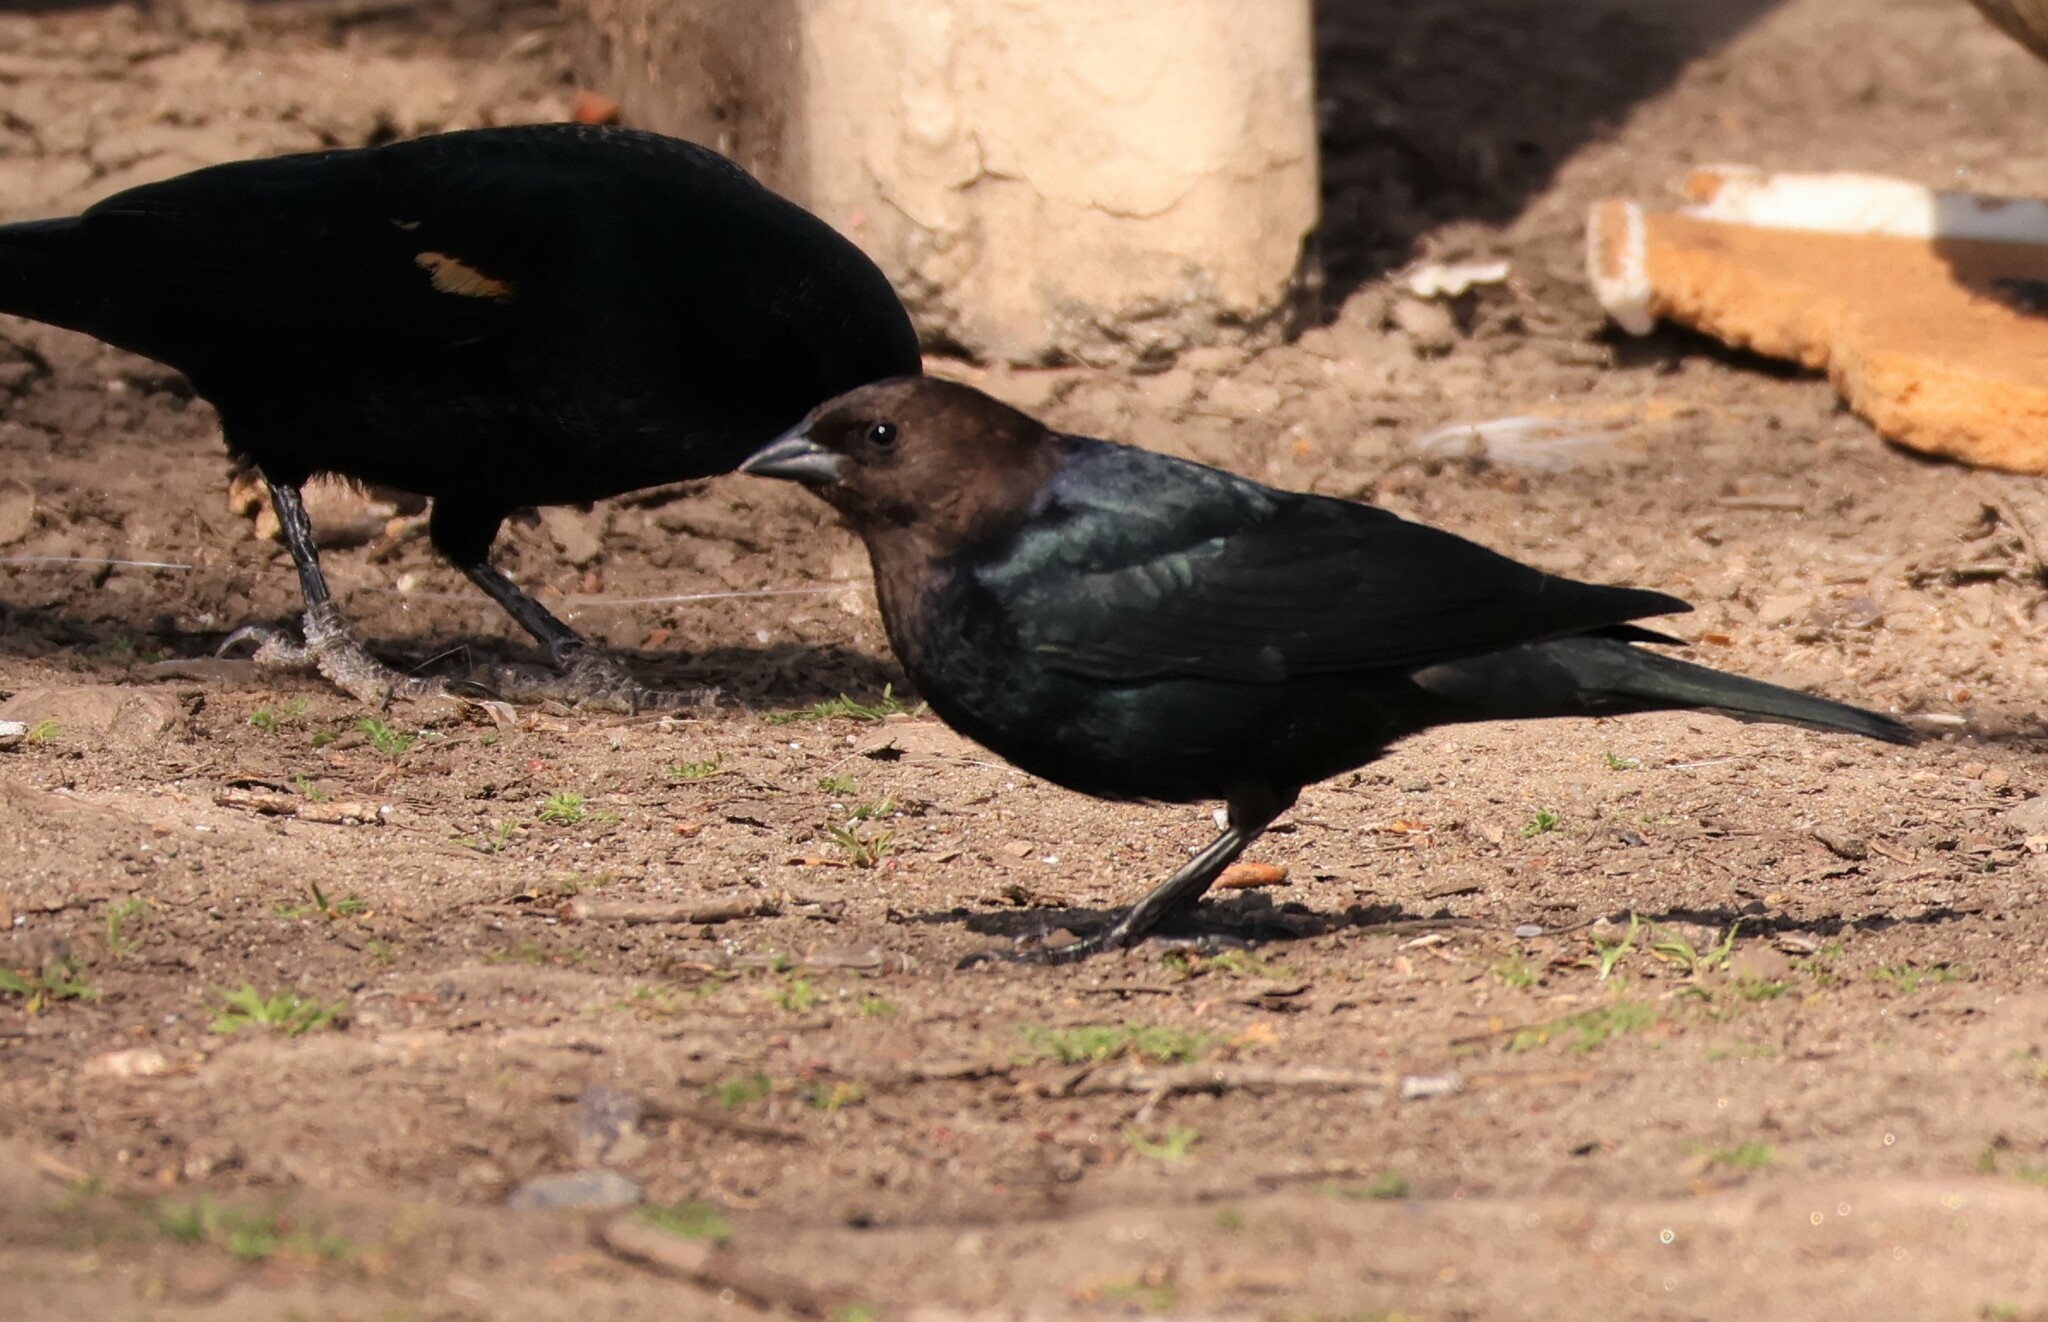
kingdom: Animalia
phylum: Chordata
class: Aves
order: Passeriformes
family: Icteridae
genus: Molothrus
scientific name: Molothrus ater
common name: Brown-headed cowbird
